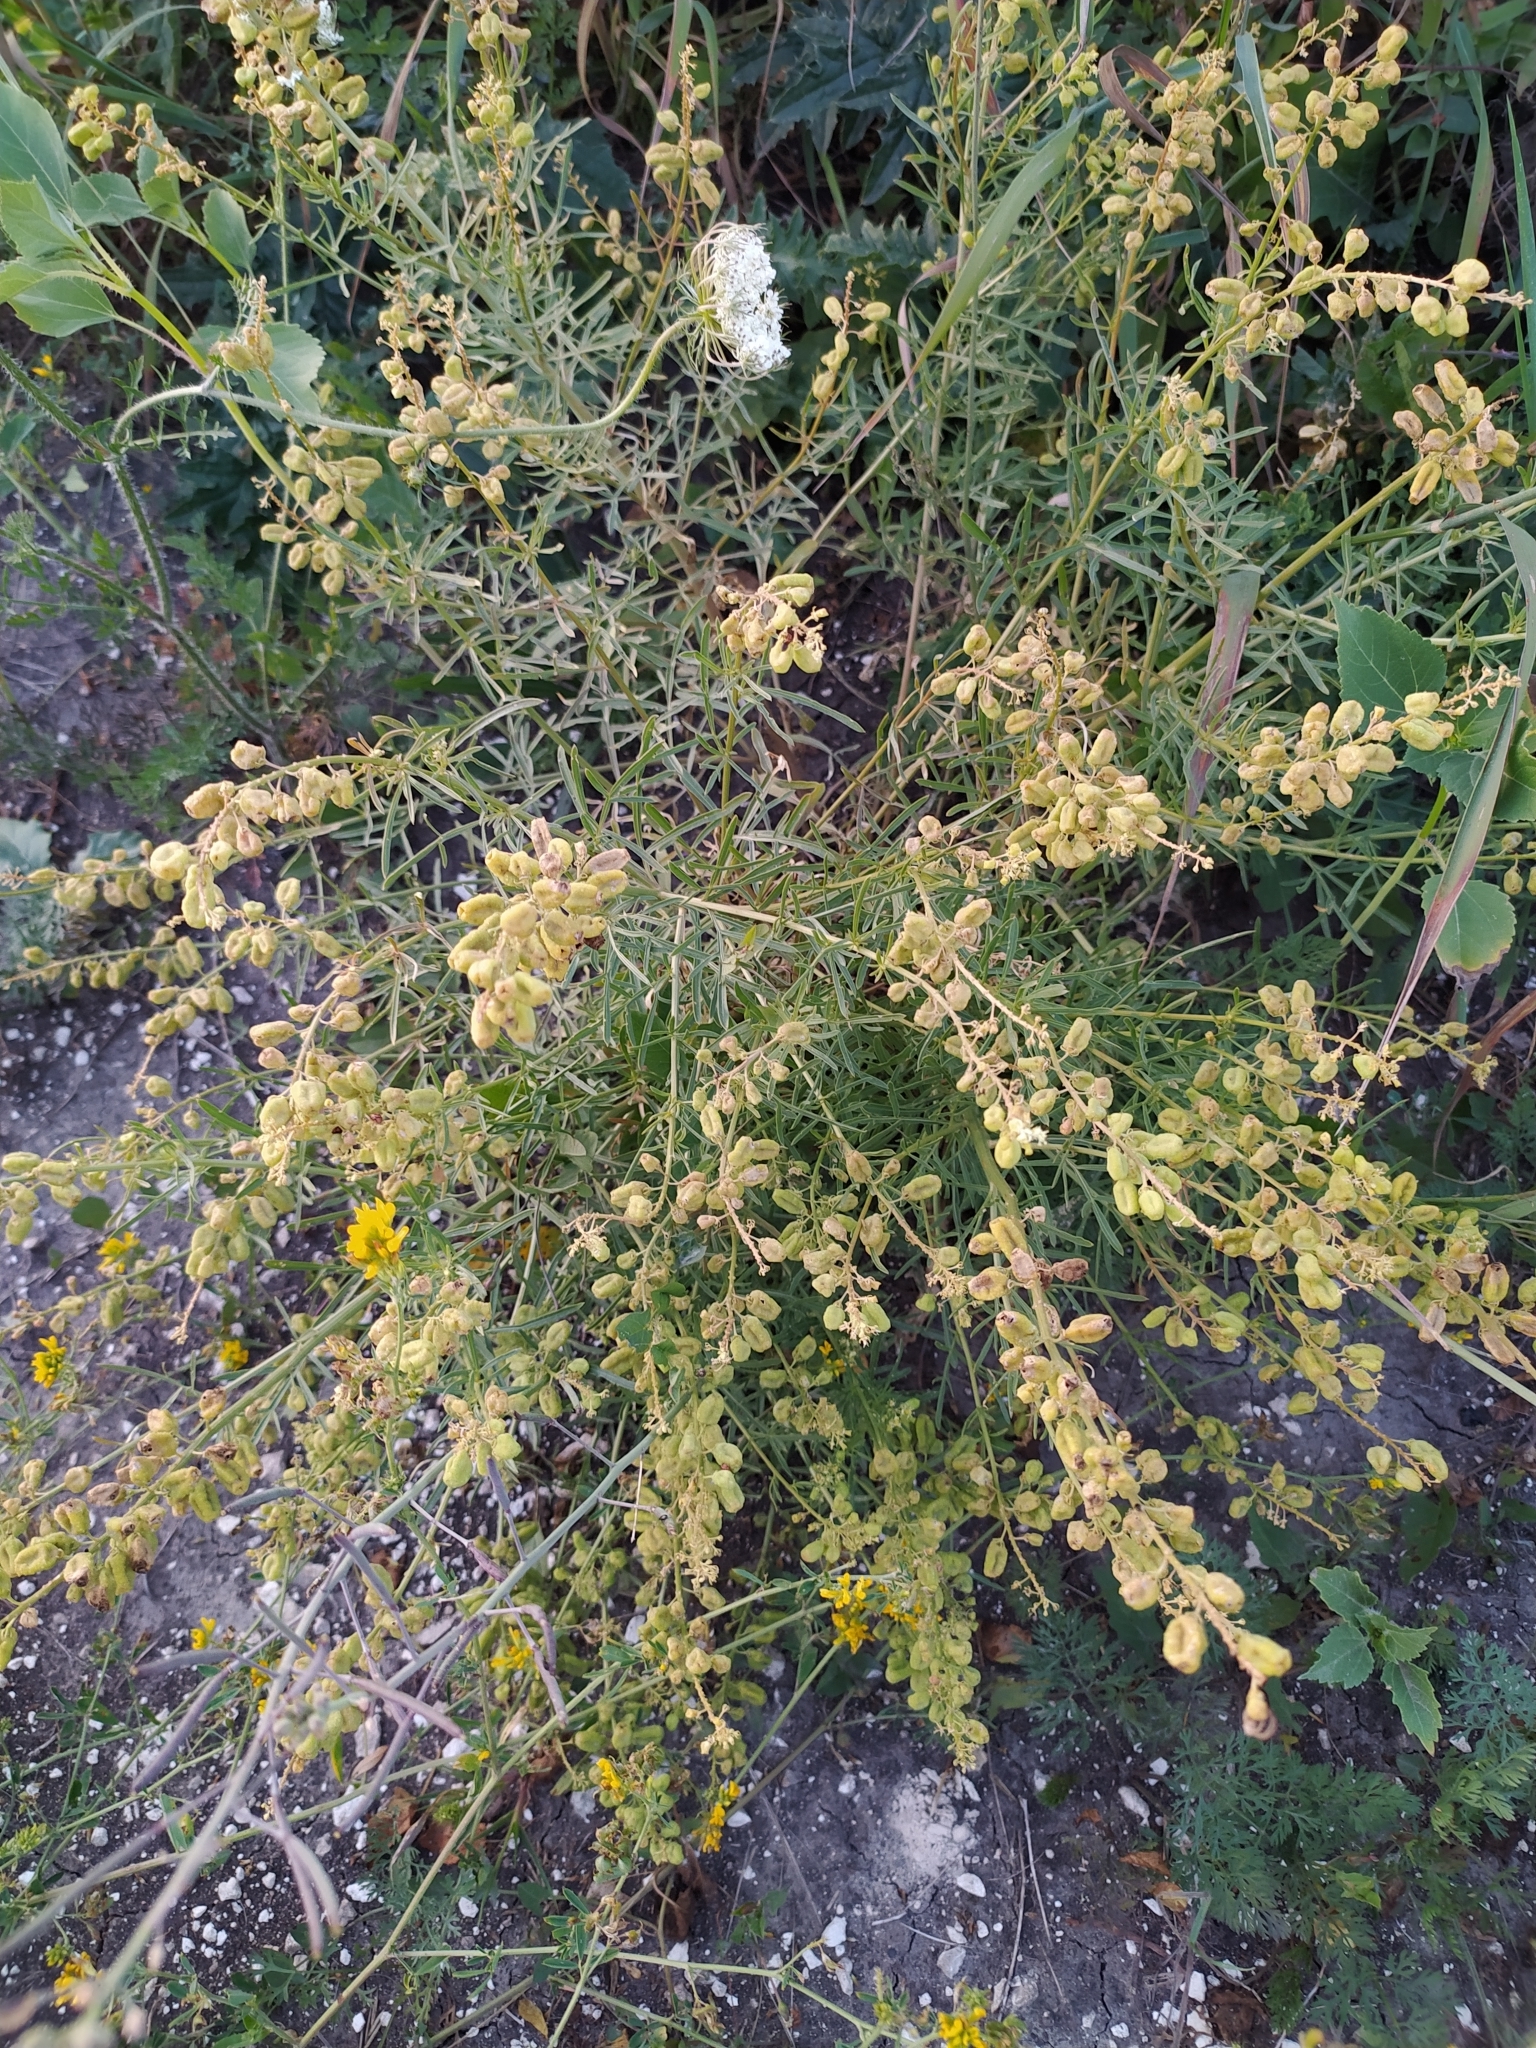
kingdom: Plantae
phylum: Tracheophyta
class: Magnoliopsida
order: Brassicales
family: Resedaceae
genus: Reseda
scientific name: Reseda lutea
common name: Wild mignonette
